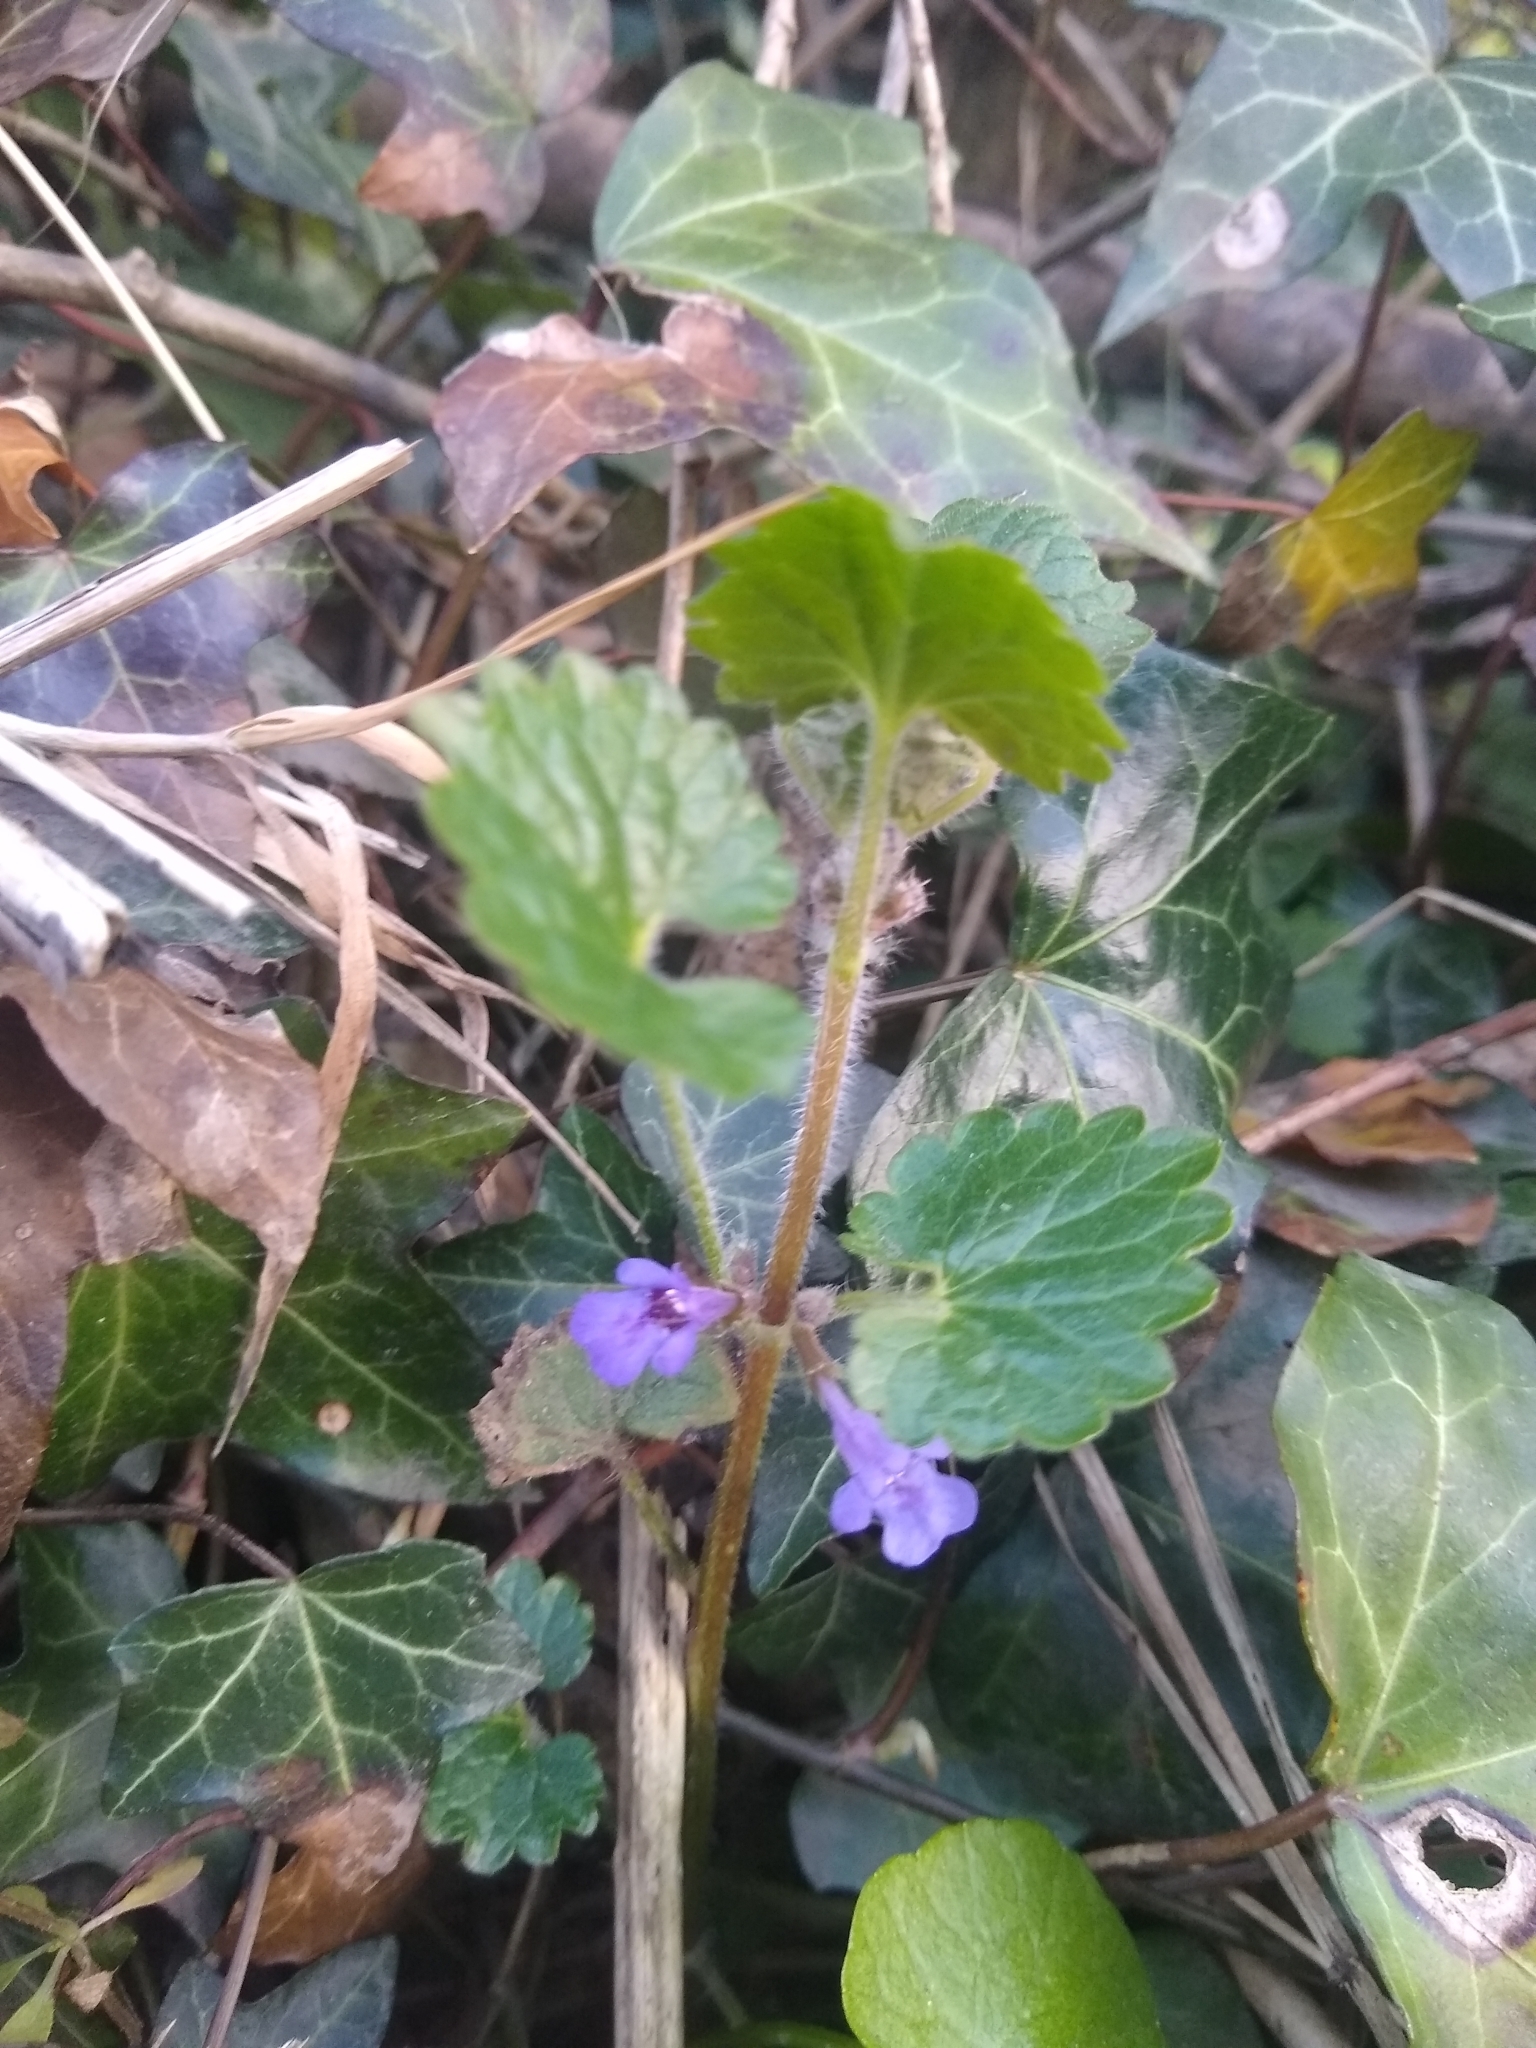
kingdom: Plantae
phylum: Tracheophyta
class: Magnoliopsida
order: Lamiales
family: Lamiaceae
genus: Glechoma
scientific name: Glechoma hederacea
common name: Ground ivy
